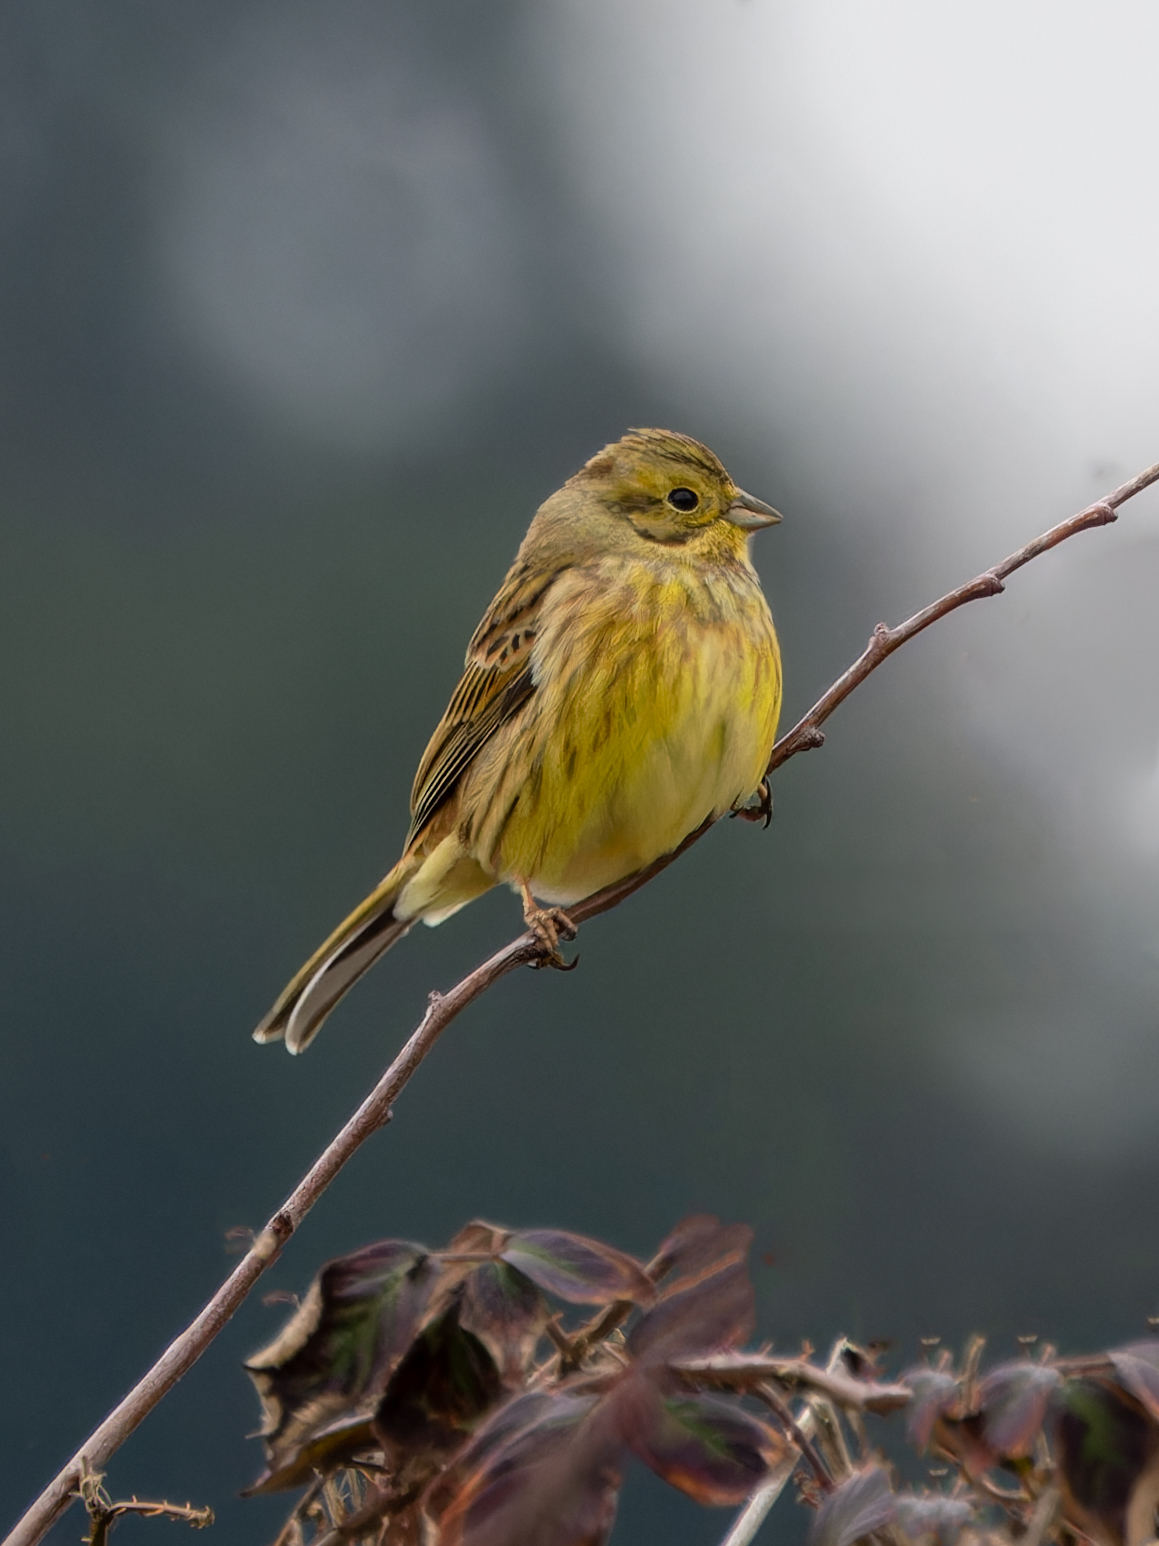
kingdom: Animalia
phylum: Chordata
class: Aves
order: Passeriformes
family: Emberizidae
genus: Emberiza
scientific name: Emberiza citrinella
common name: Yellowhammer
